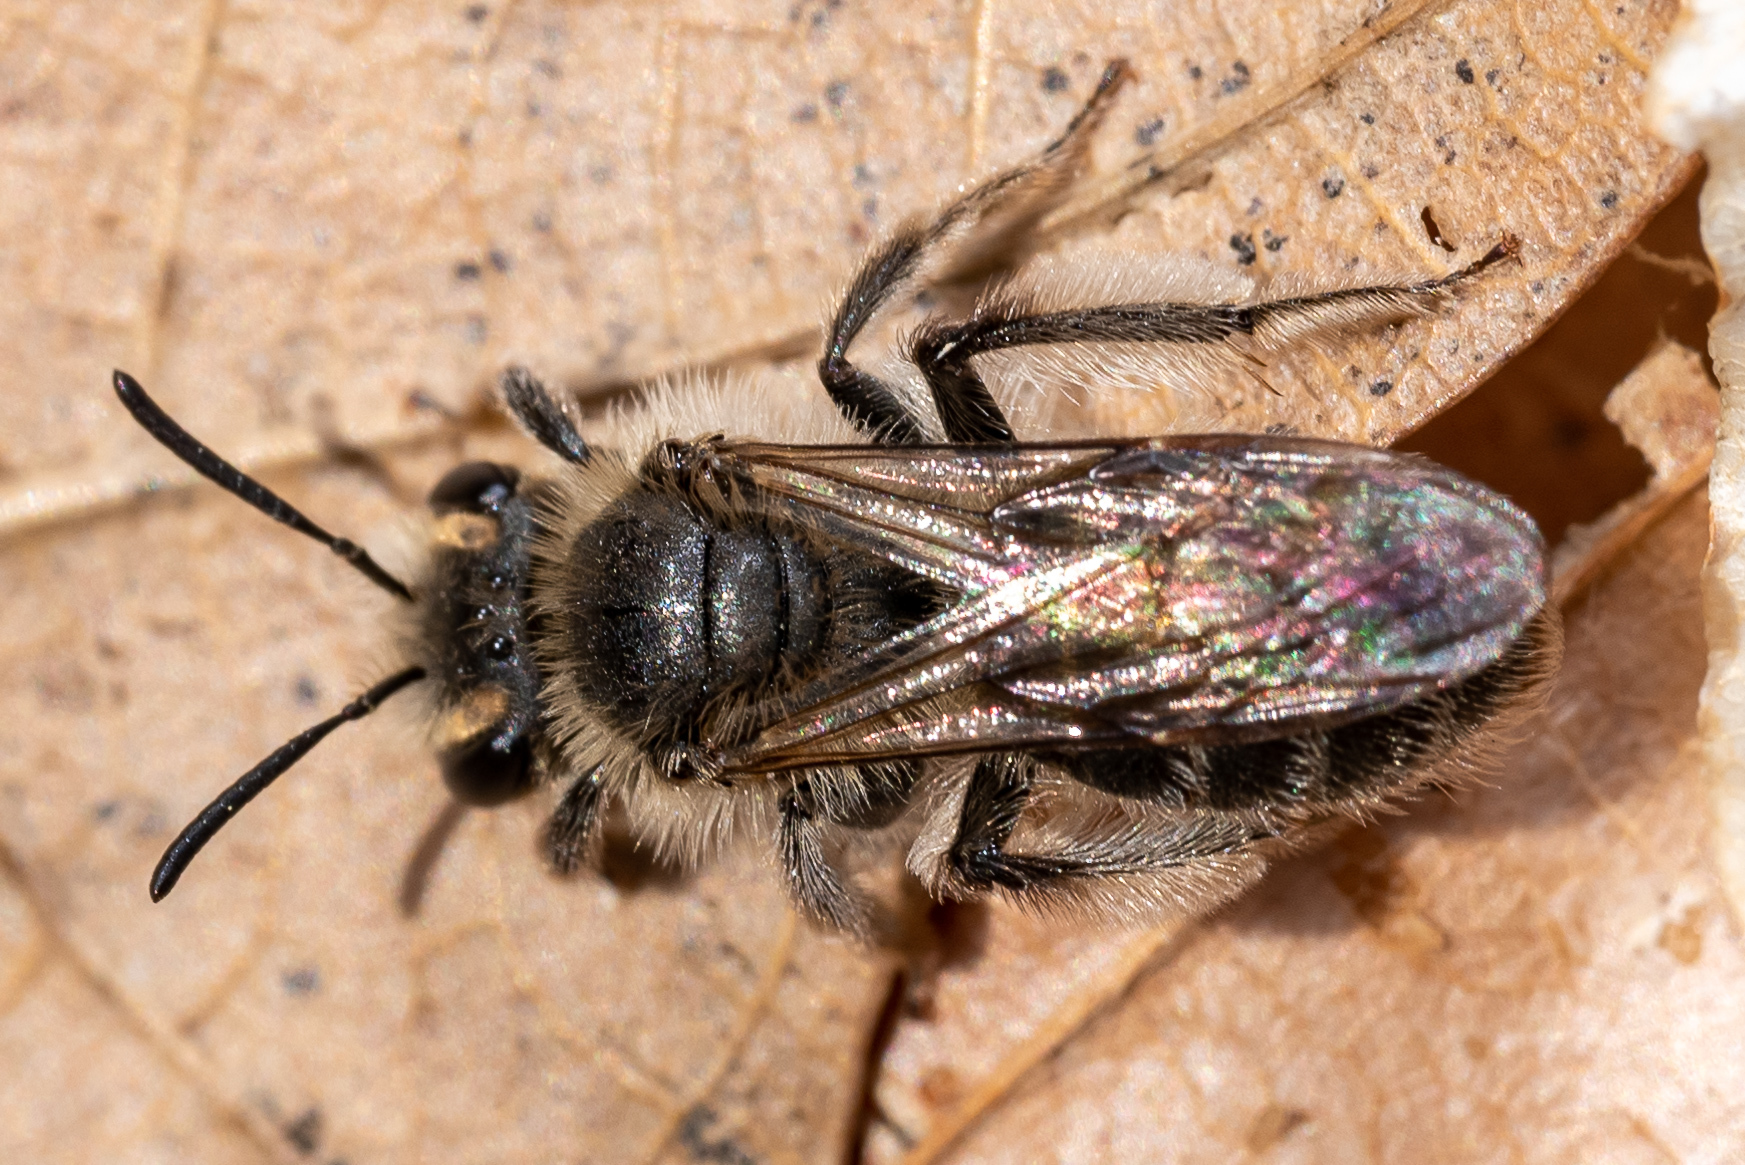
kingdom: Animalia
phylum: Arthropoda
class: Insecta
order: Hymenoptera
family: Andrenidae
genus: Andrena
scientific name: Andrena erigeniae
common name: Spring beauty miner
